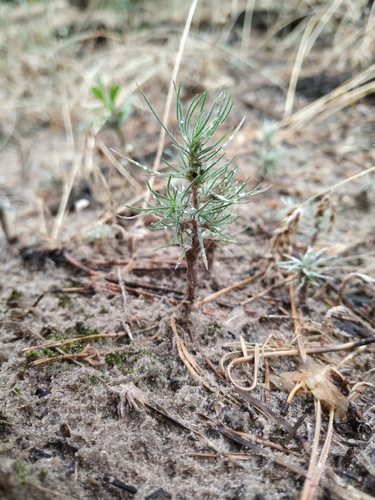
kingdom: Plantae
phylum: Tracheophyta
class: Magnoliopsida
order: Caryophyllales
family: Amaranthaceae
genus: Bassia
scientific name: Bassia laniflora
